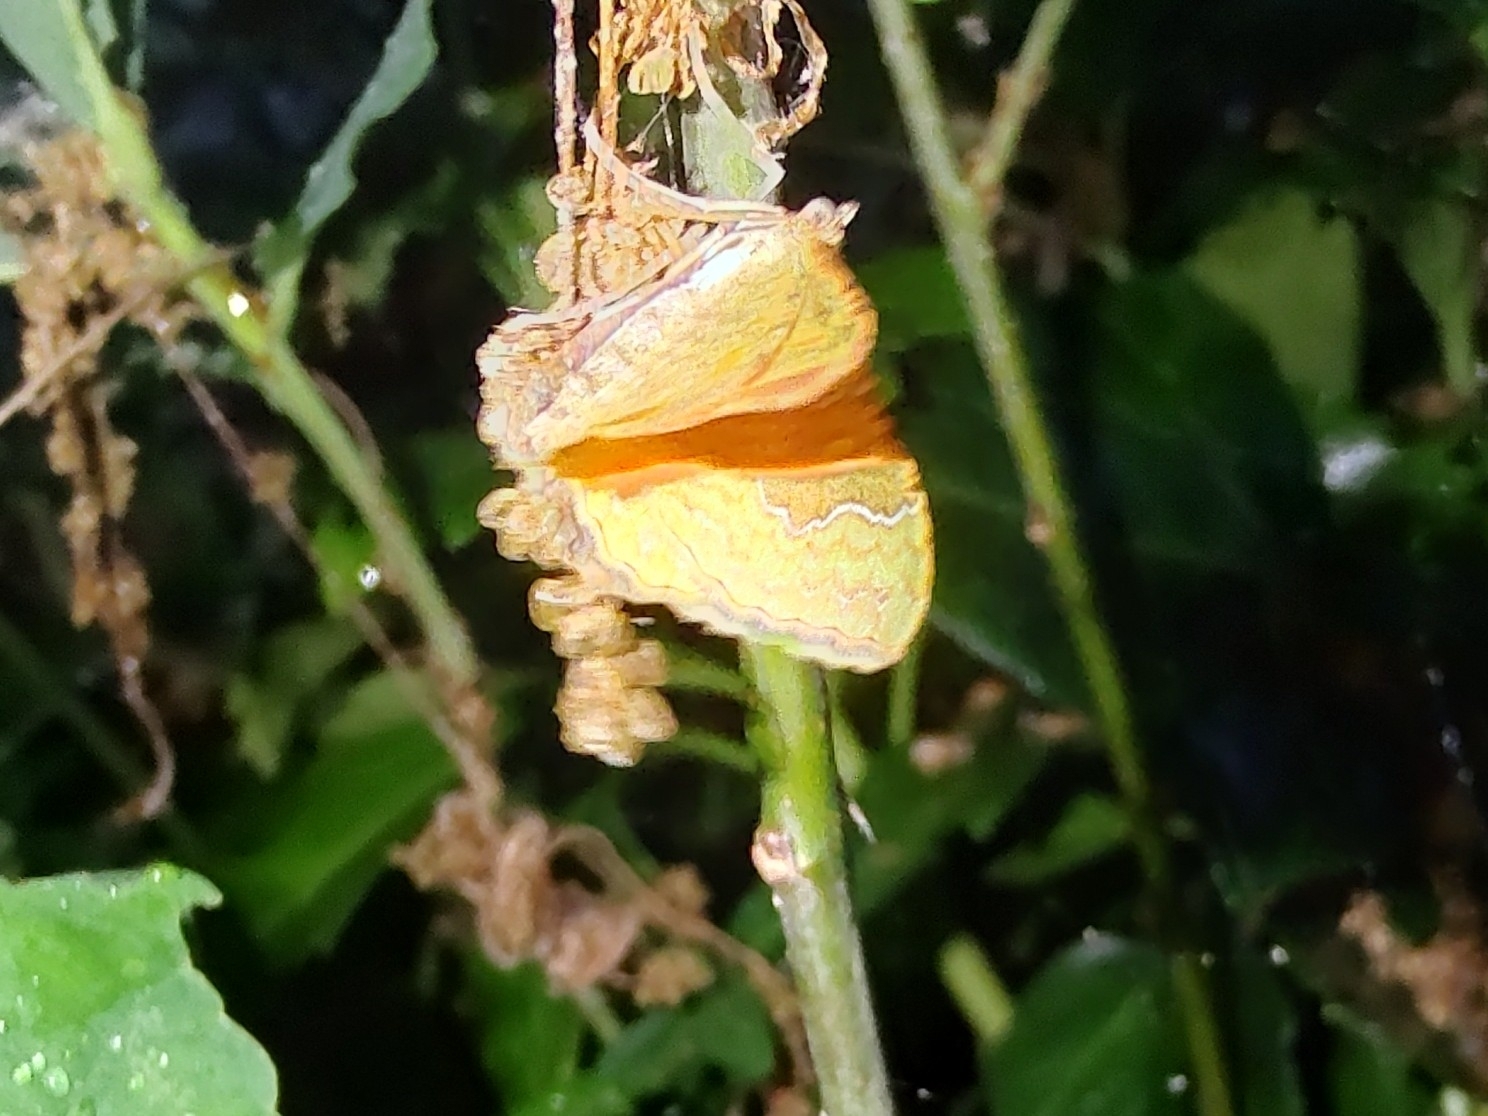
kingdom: Animalia
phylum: Arthropoda
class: Insecta
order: Lepidoptera
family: Geometridae
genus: Camptogramma
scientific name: Camptogramma bilineata
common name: Yellow shell
